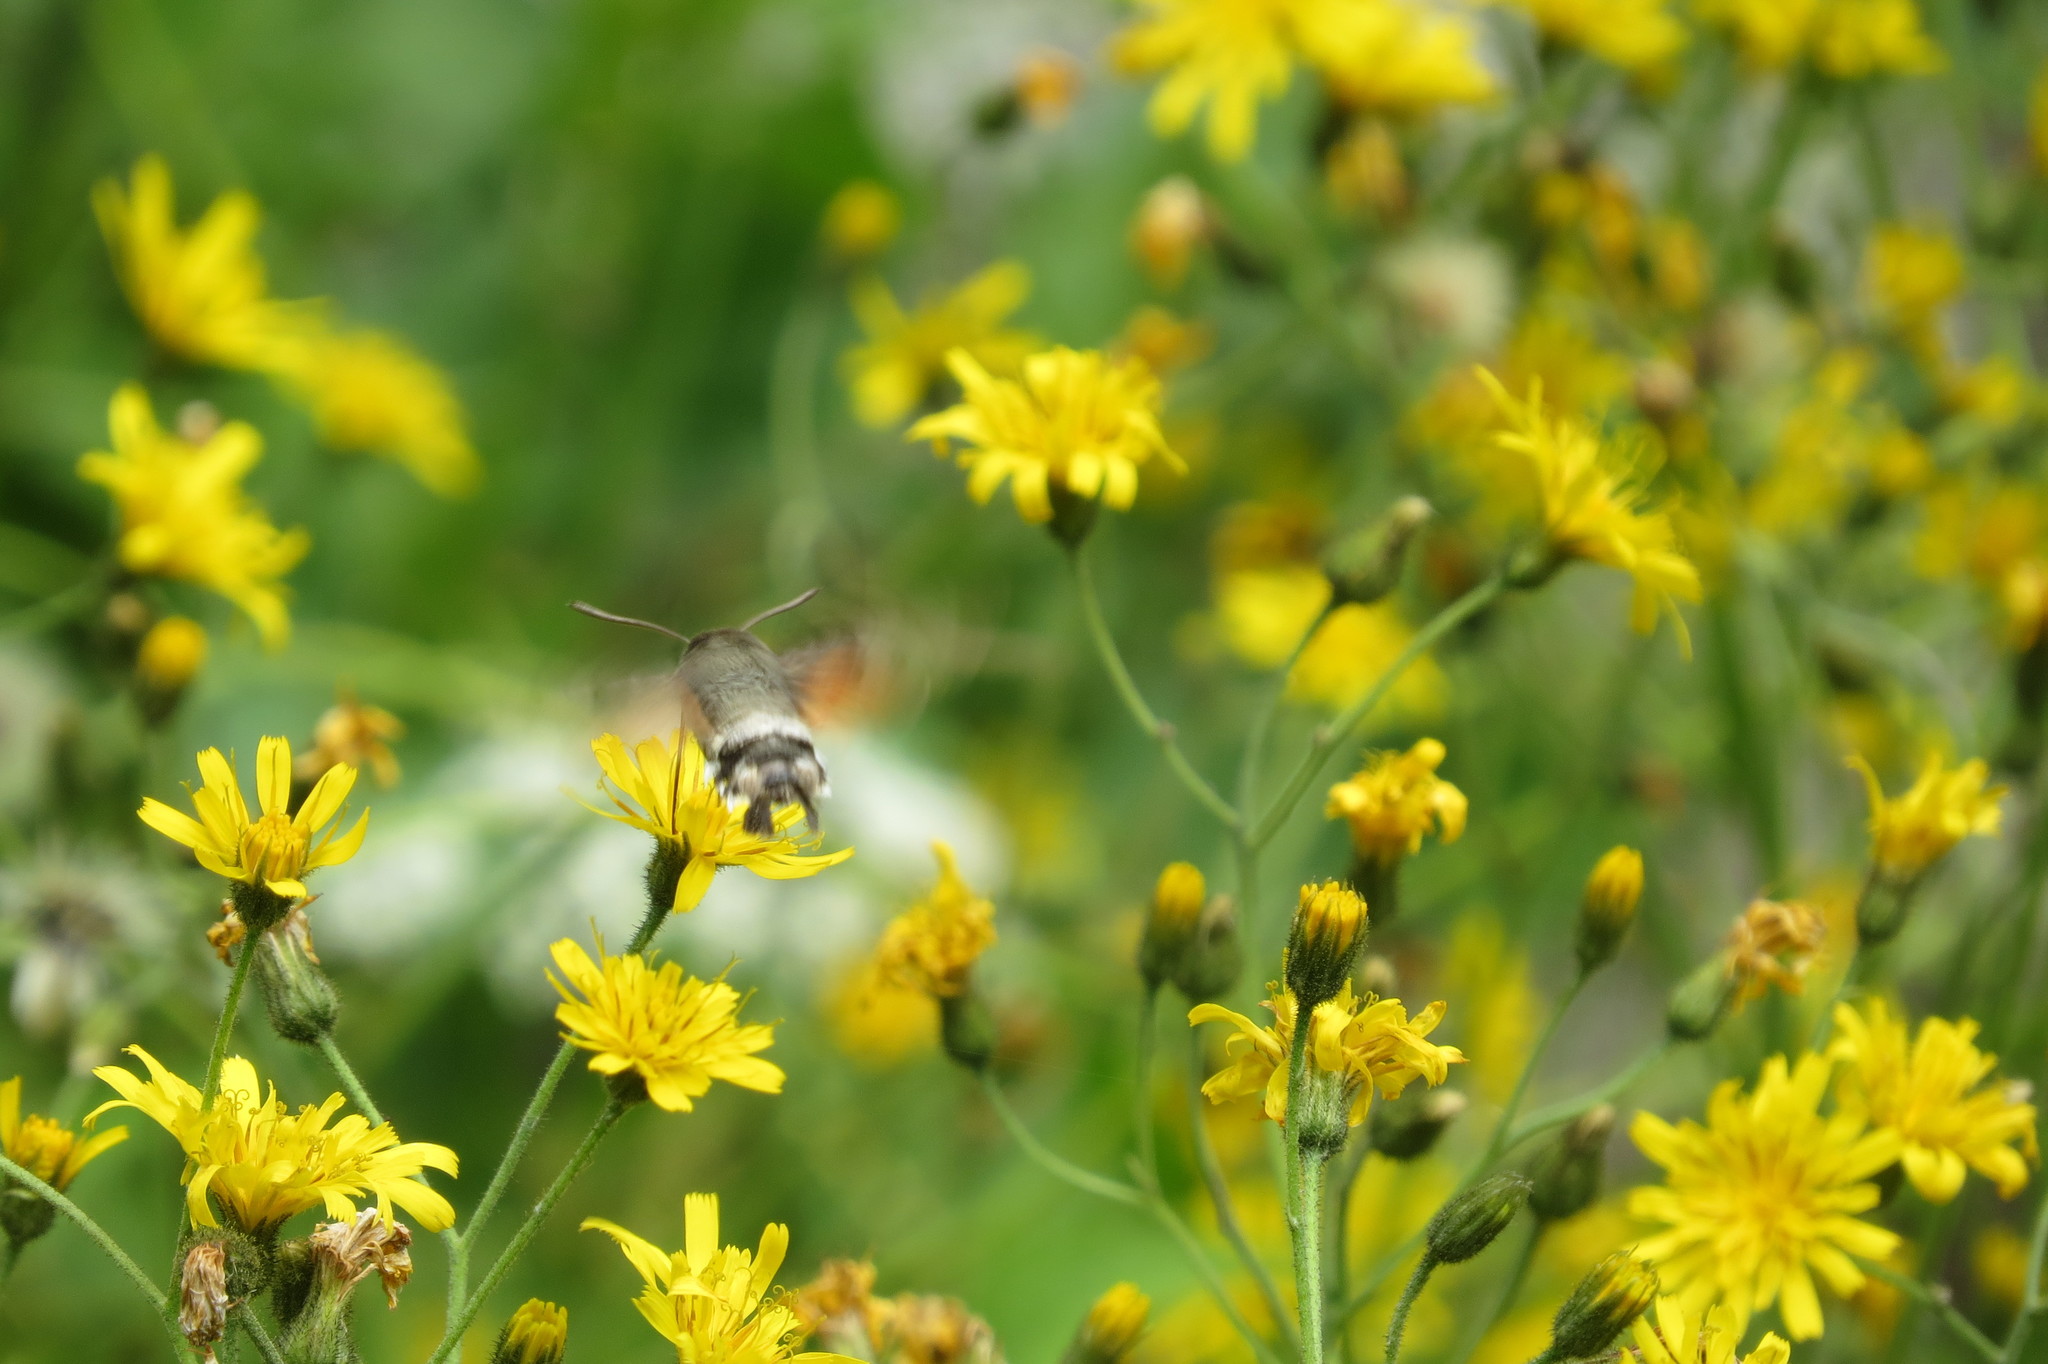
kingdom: Animalia
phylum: Arthropoda
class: Insecta
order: Lepidoptera
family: Sphingidae
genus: Macroglossum
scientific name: Macroglossum stellatarum
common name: Humming-bird hawk-moth
